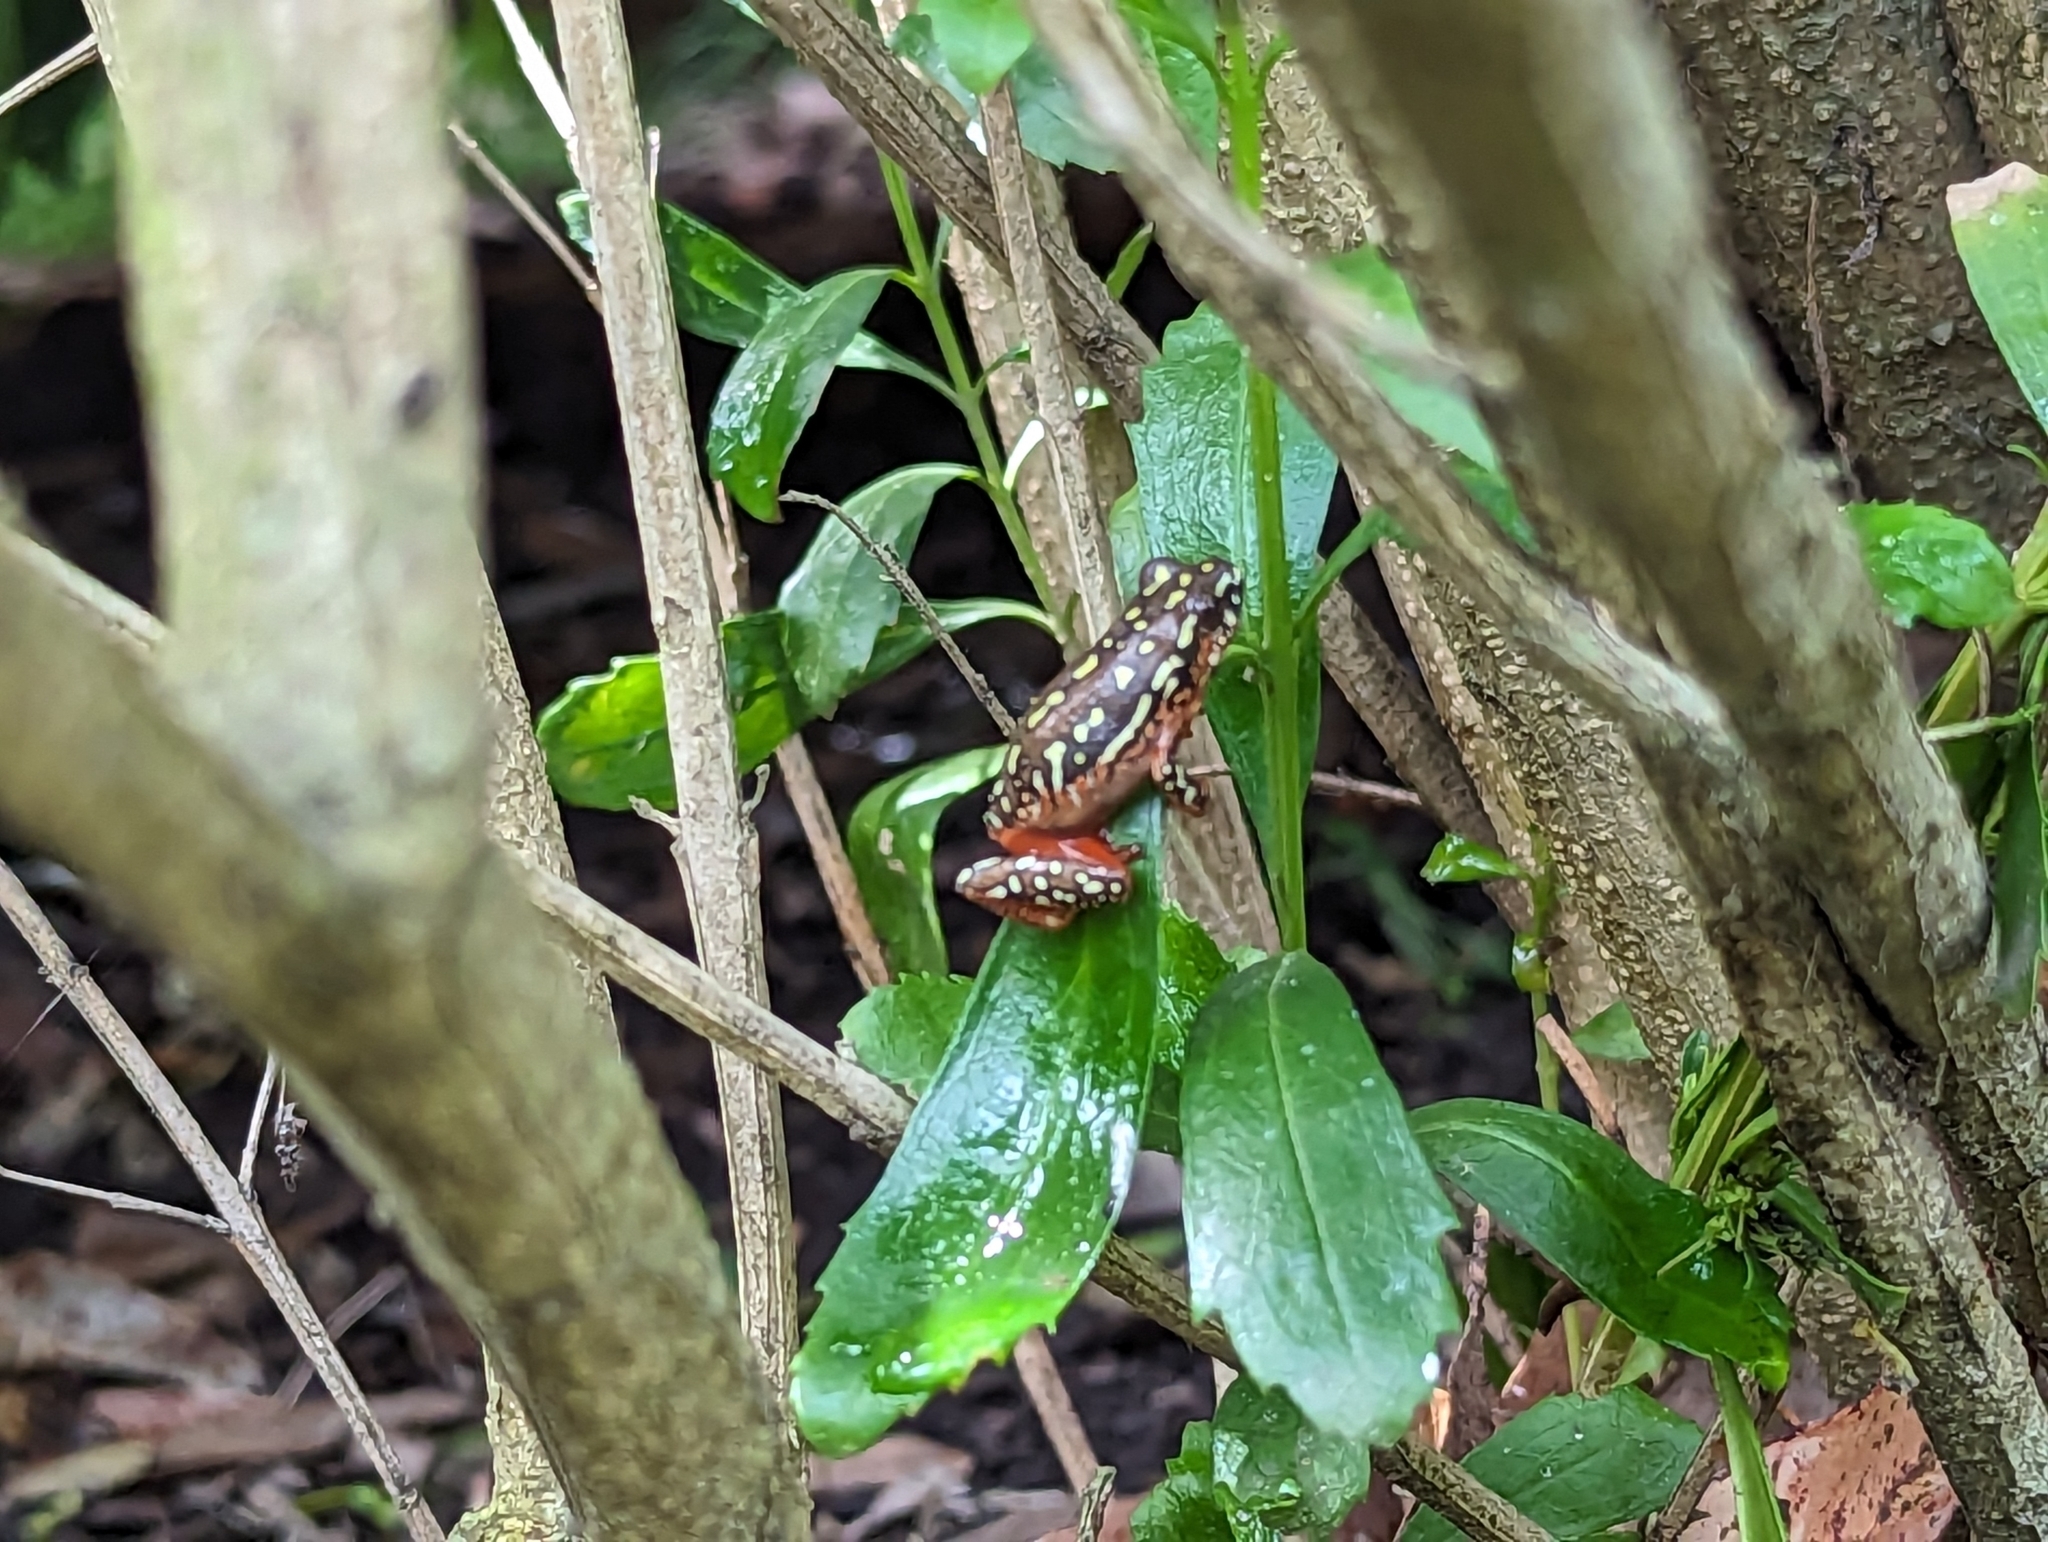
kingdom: Animalia
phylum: Chordata
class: Amphibia
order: Anura
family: Hyperoliidae
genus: Hyperolius
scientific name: Hyperolius marmoratus
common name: Painted reed frog
